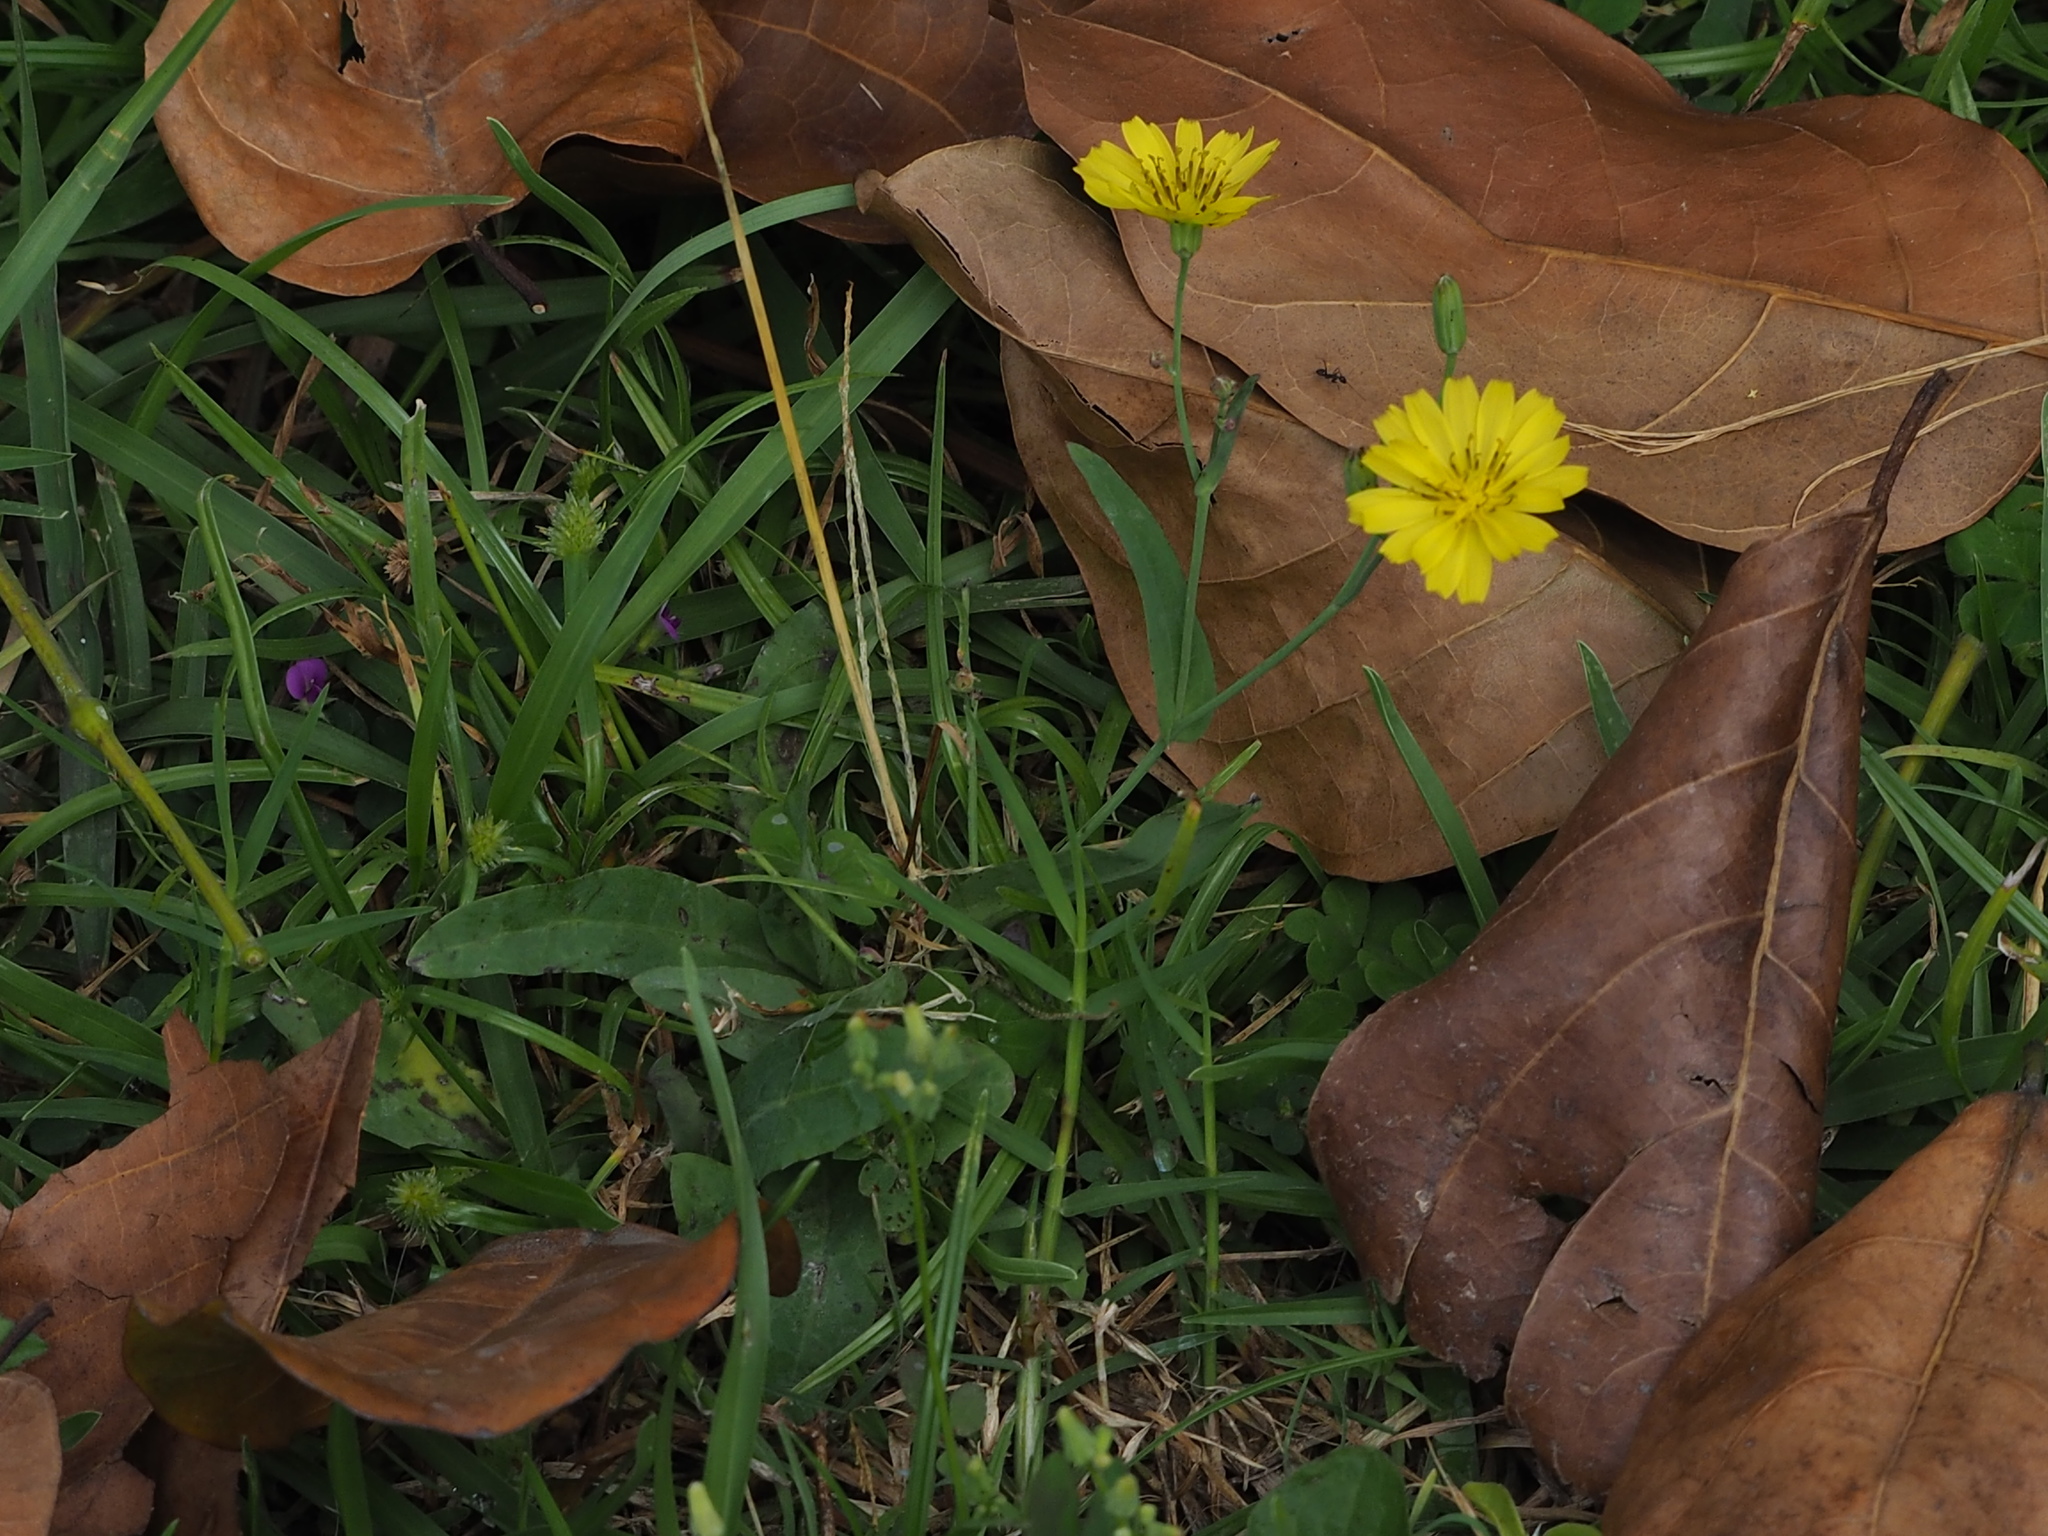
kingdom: Plantae
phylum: Tracheophyta
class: Magnoliopsida
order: Asterales
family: Asteraceae
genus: Ixeris
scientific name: Ixeris chinensis
